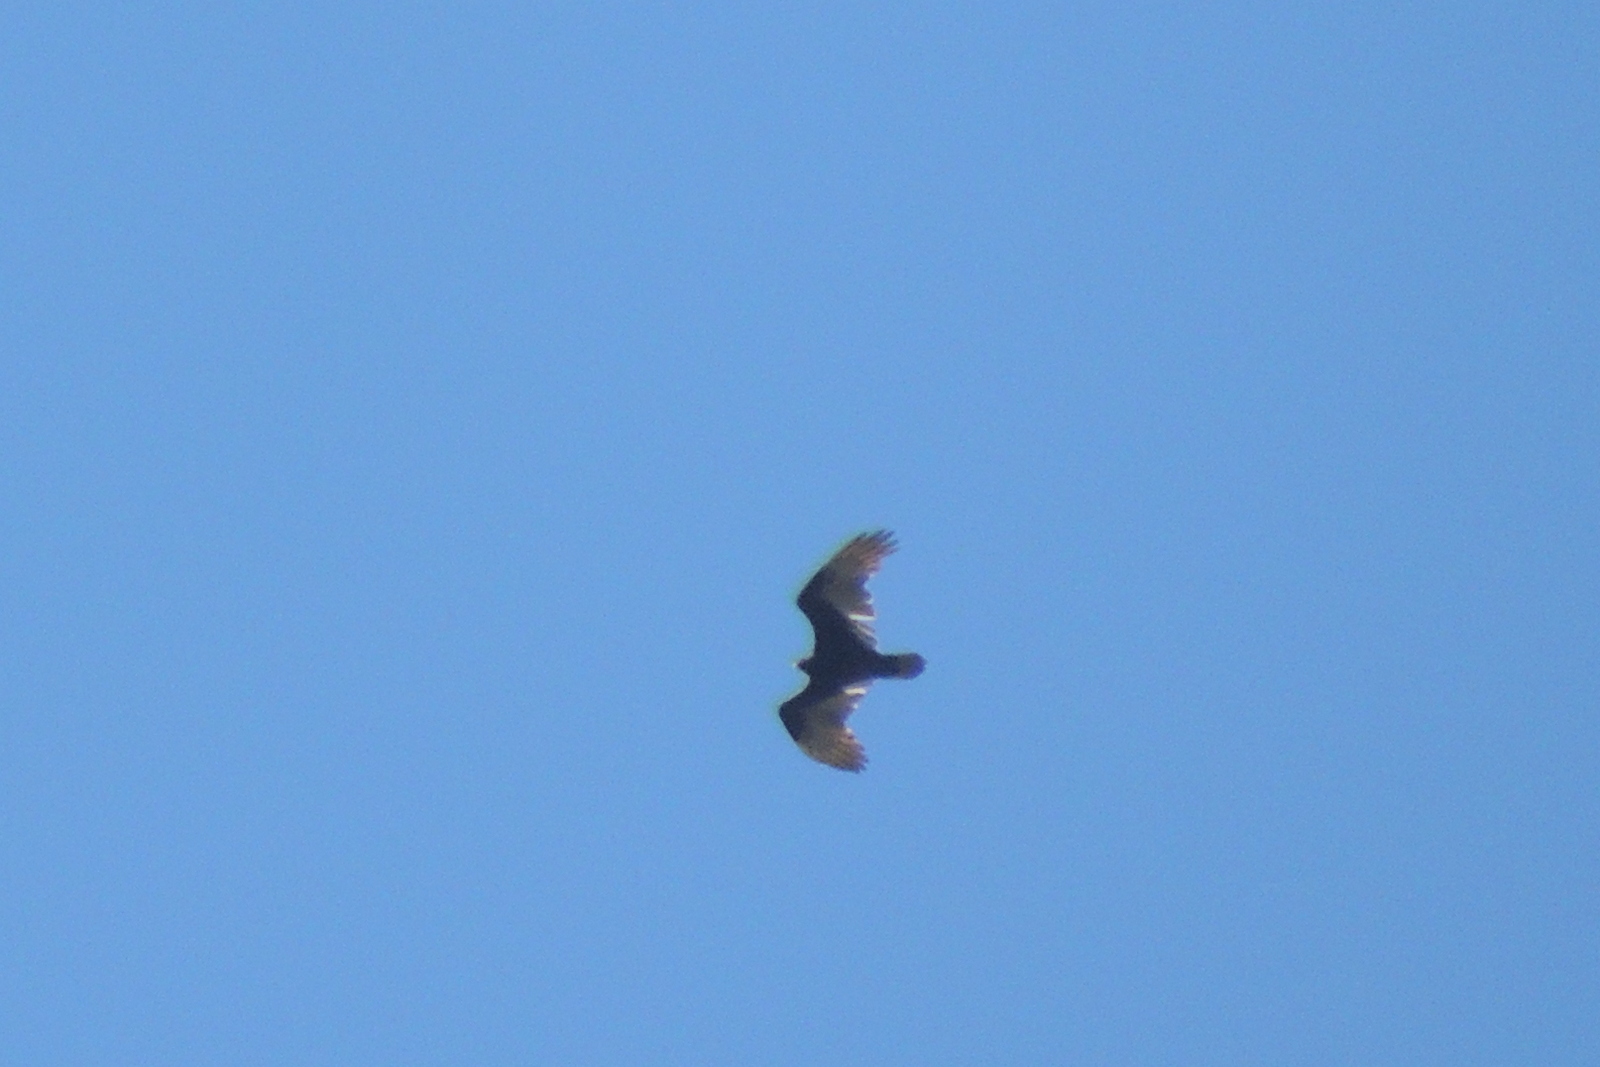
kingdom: Animalia
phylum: Chordata
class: Aves
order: Accipitriformes
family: Cathartidae
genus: Cathartes
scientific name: Cathartes aura
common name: Turkey vulture
